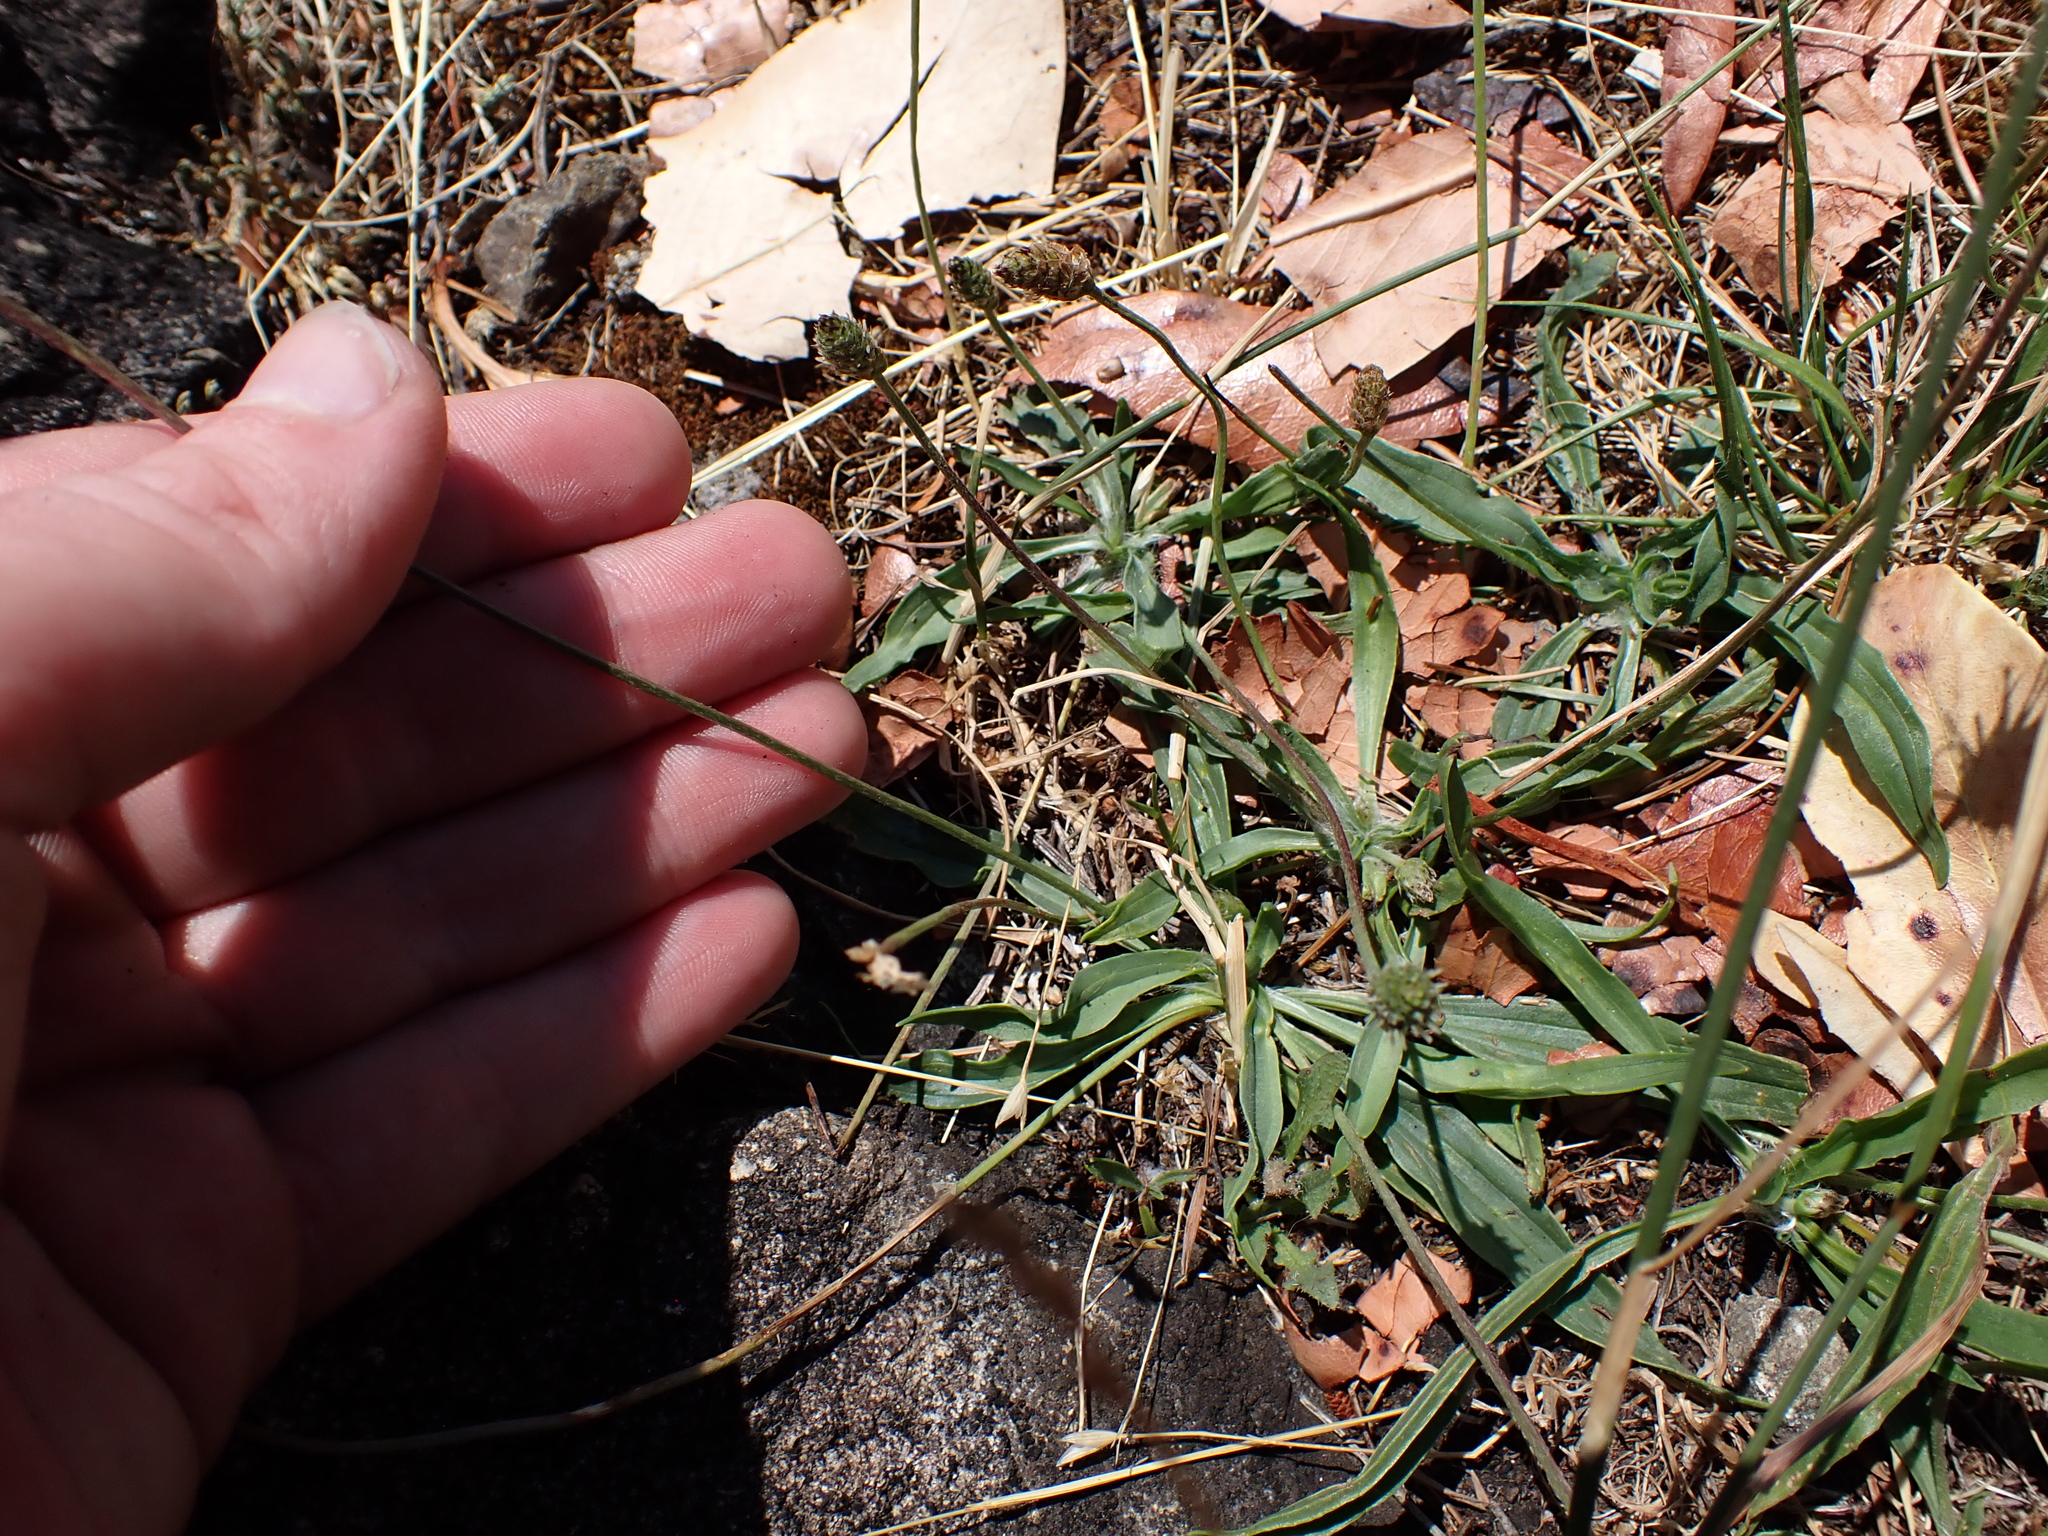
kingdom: Plantae
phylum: Tracheophyta
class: Magnoliopsida
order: Lamiales
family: Plantaginaceae
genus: Plantago
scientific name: Plantago lanceolata
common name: Ribwort plantain
